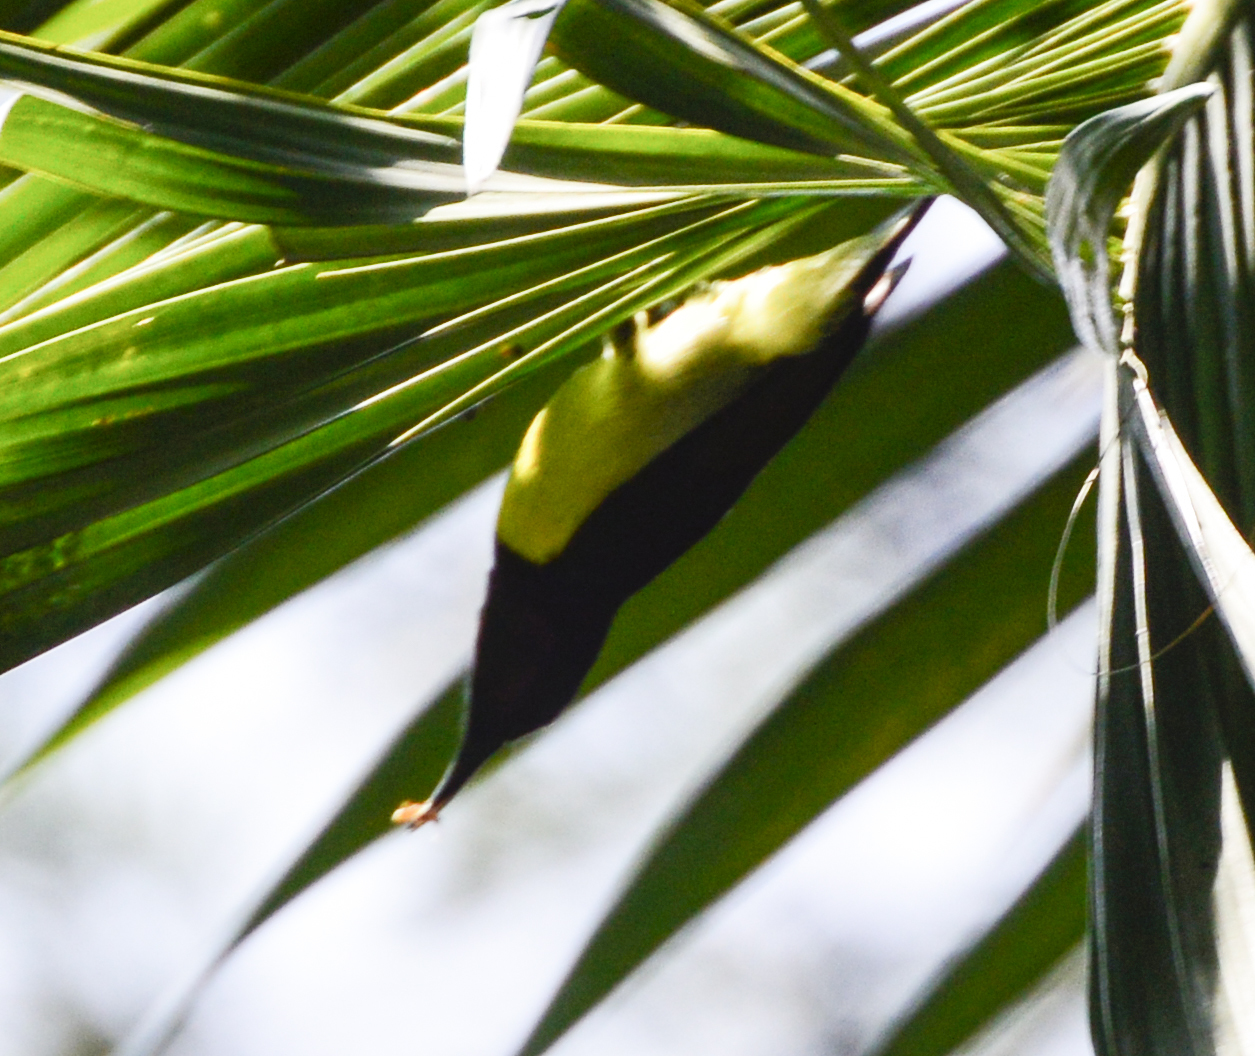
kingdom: Animalia
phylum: Chordata
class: Aves
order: Passeriformes
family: Nectariniidae
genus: Leptocoma
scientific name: Leptocoma zeylonica
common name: Purple-rumped sunbird
